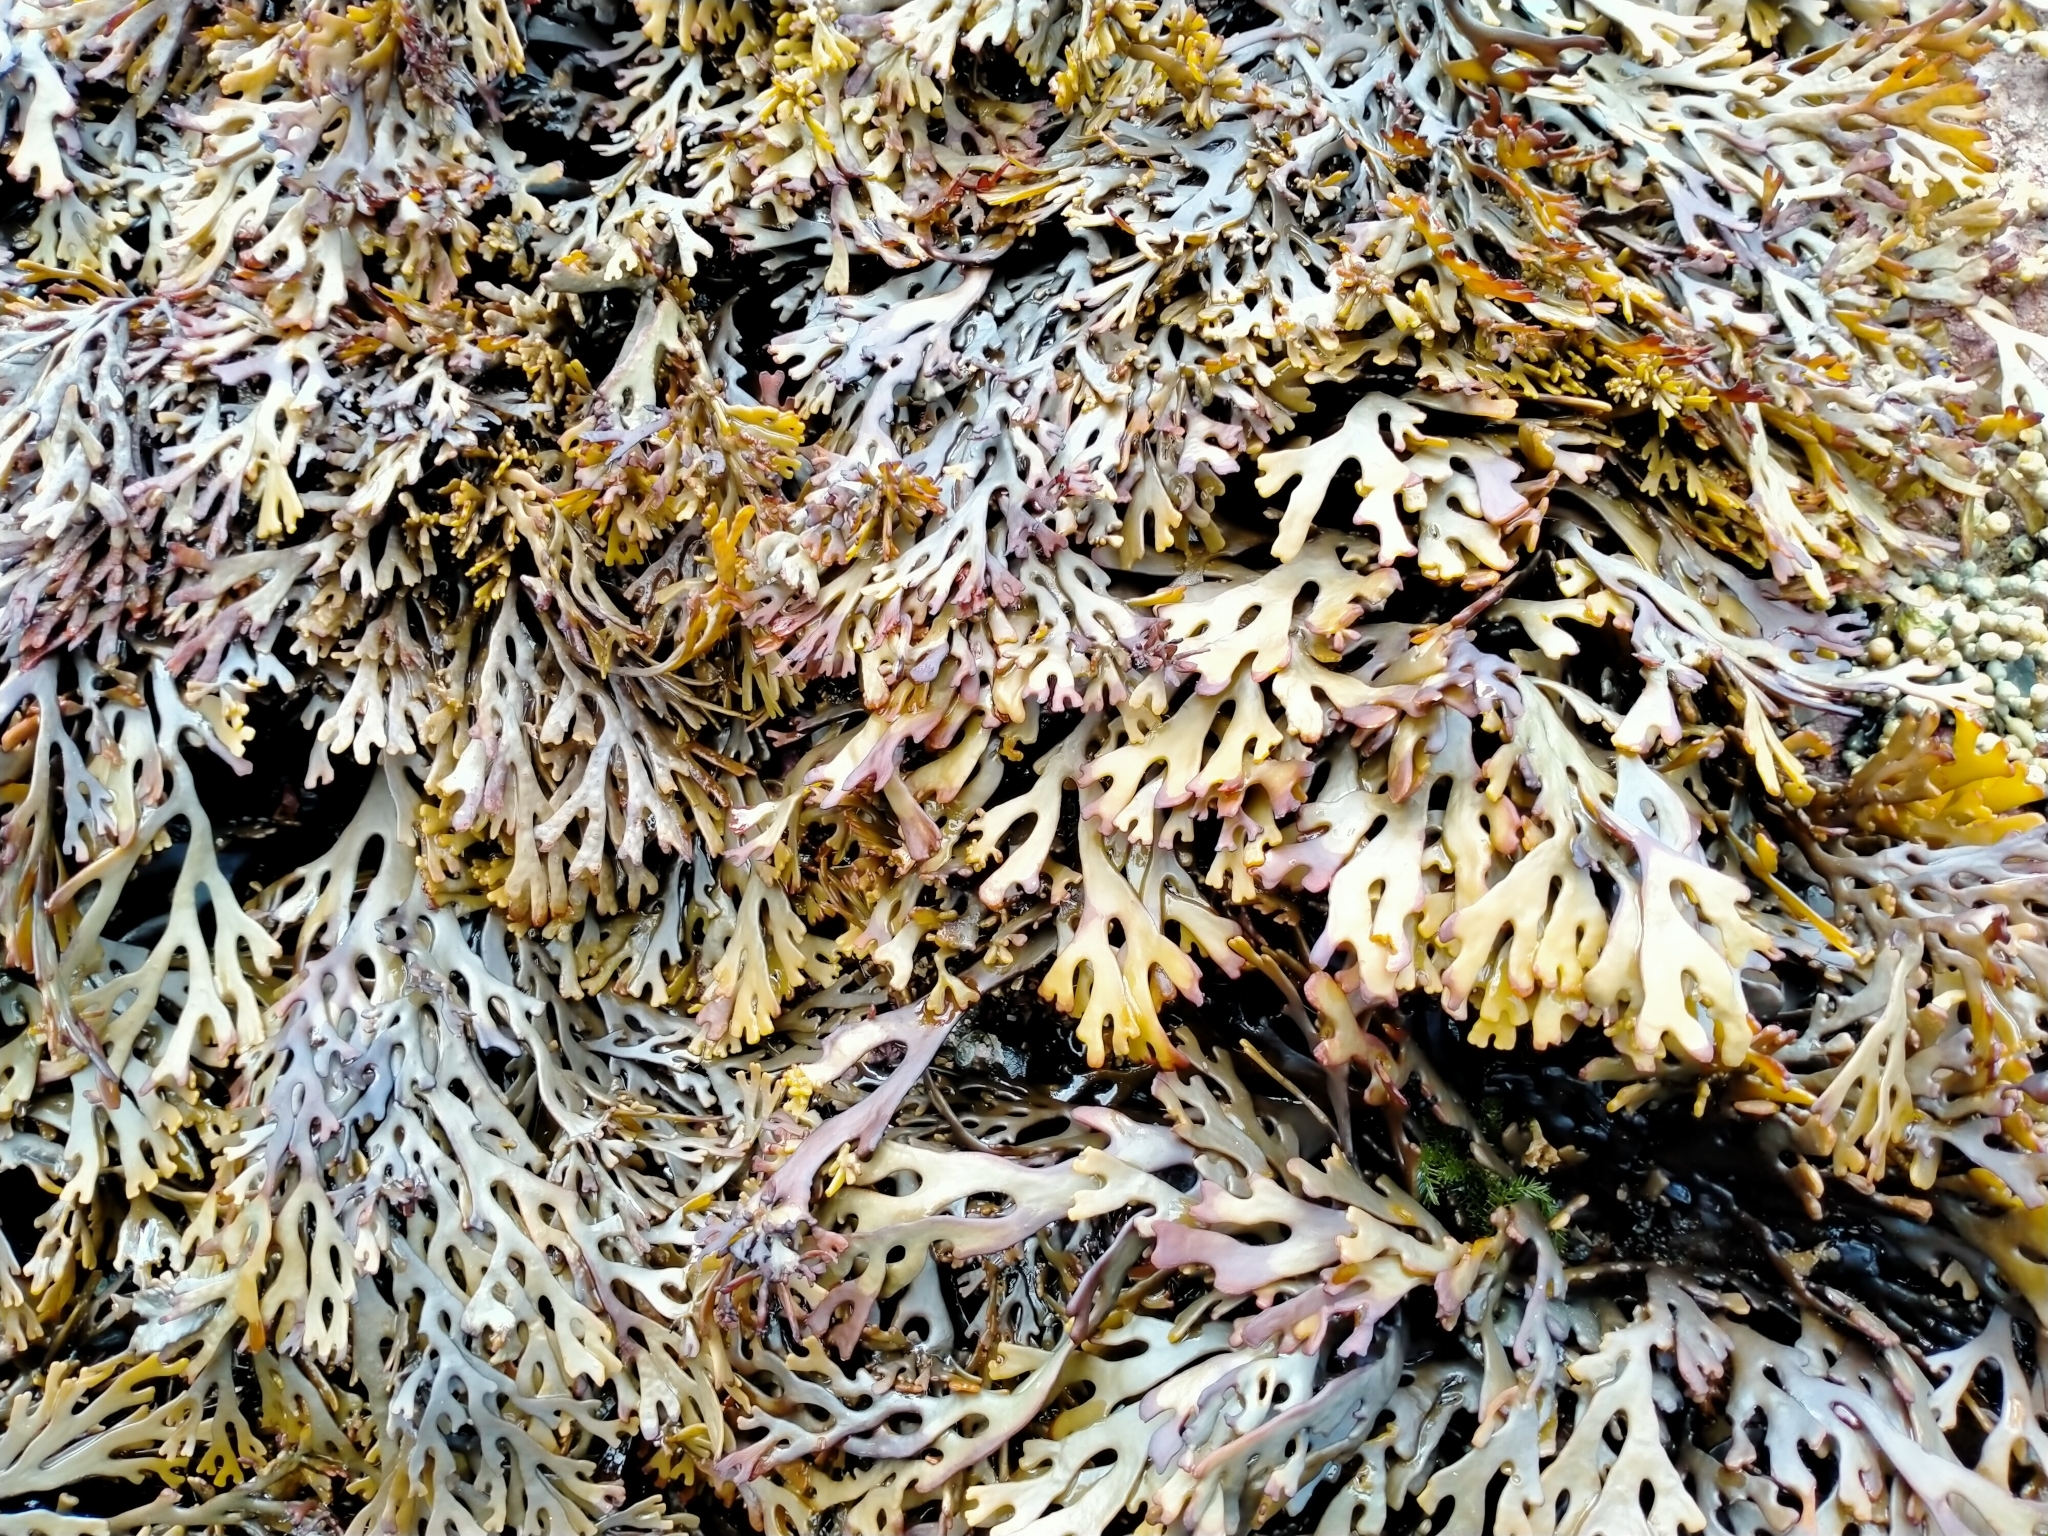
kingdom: Chromista
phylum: Ochrophyta
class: Phaeophyceae
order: Fucales
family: Xiphophoraceae
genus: Xiphophora
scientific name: Xiphophora chondrophylla
